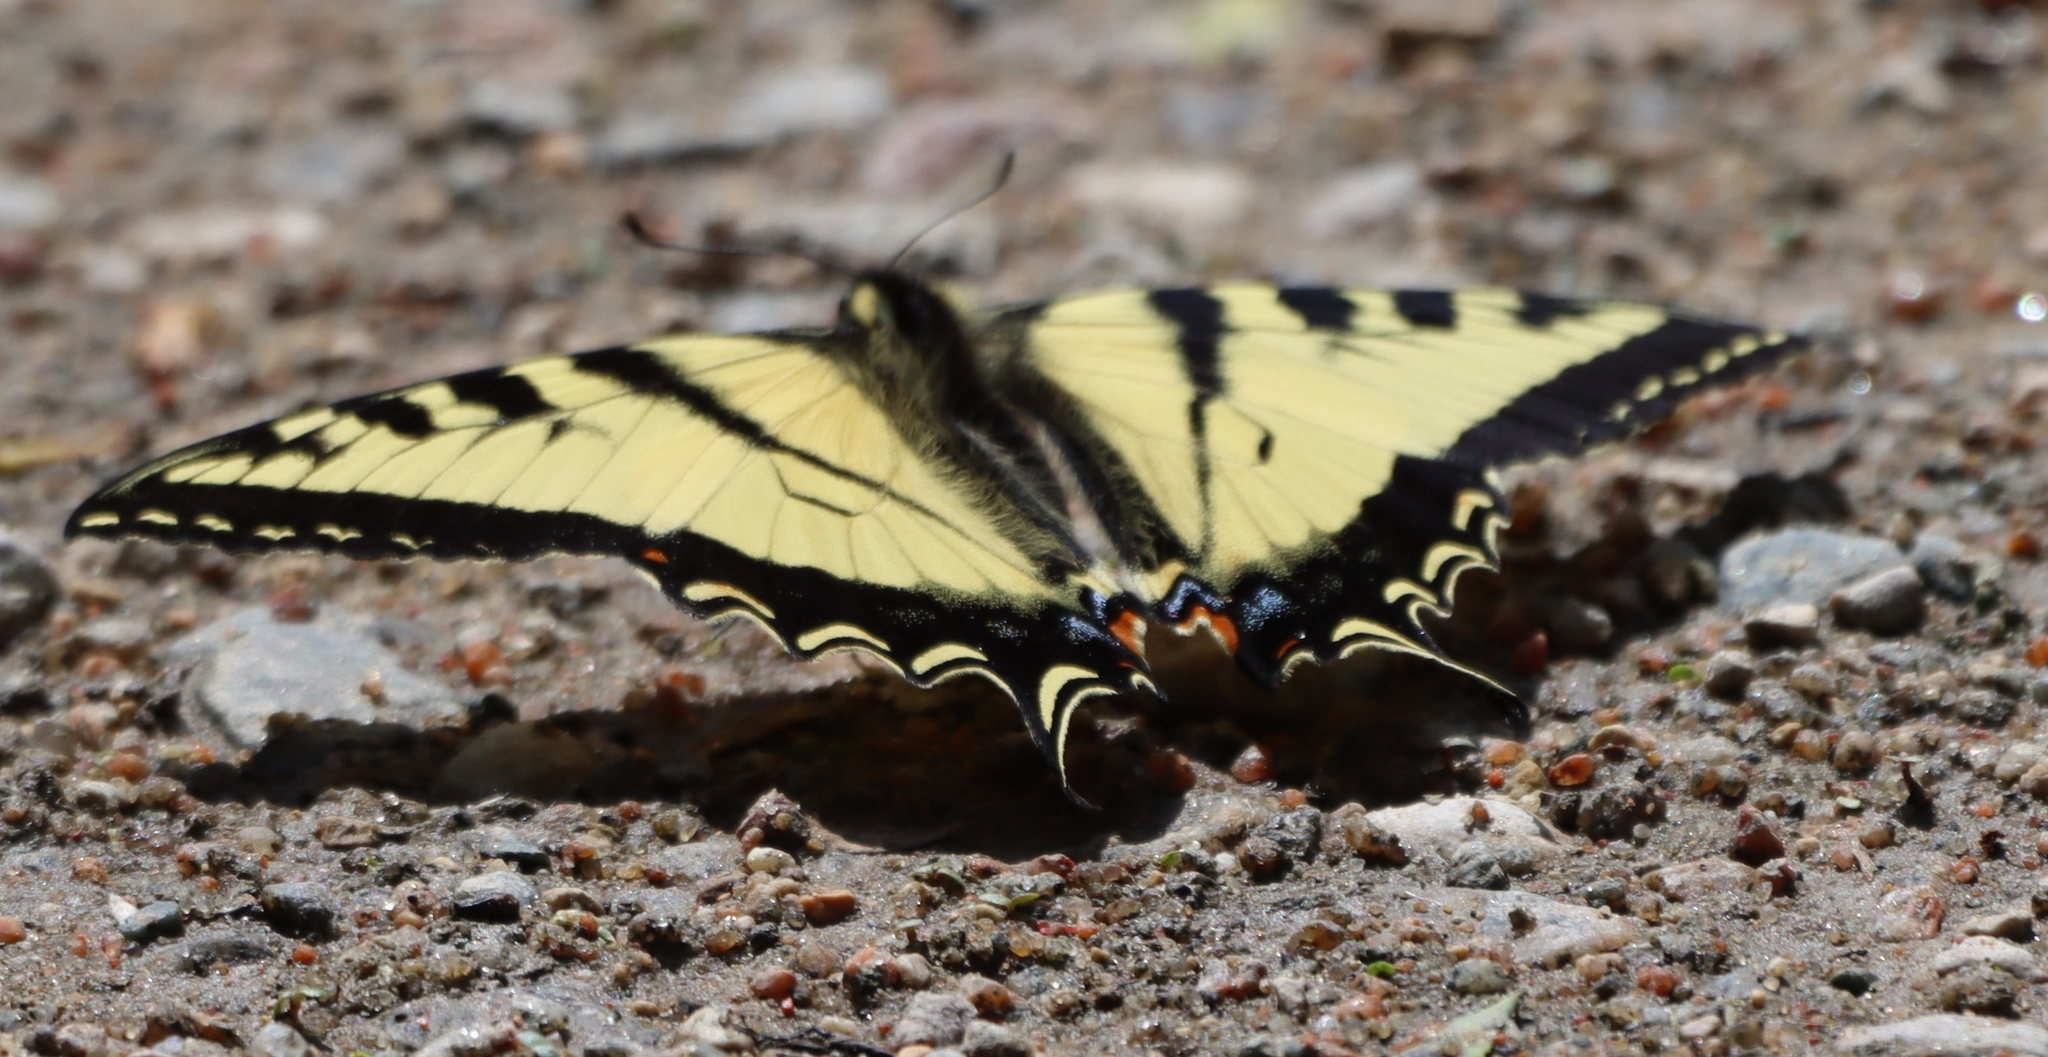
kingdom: Animalia
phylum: Arthropoda
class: Insecta
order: Lepidoptera
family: Papilionidae
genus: Papilio
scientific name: Papilio canadensis
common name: Canadian tiger swallowtail
